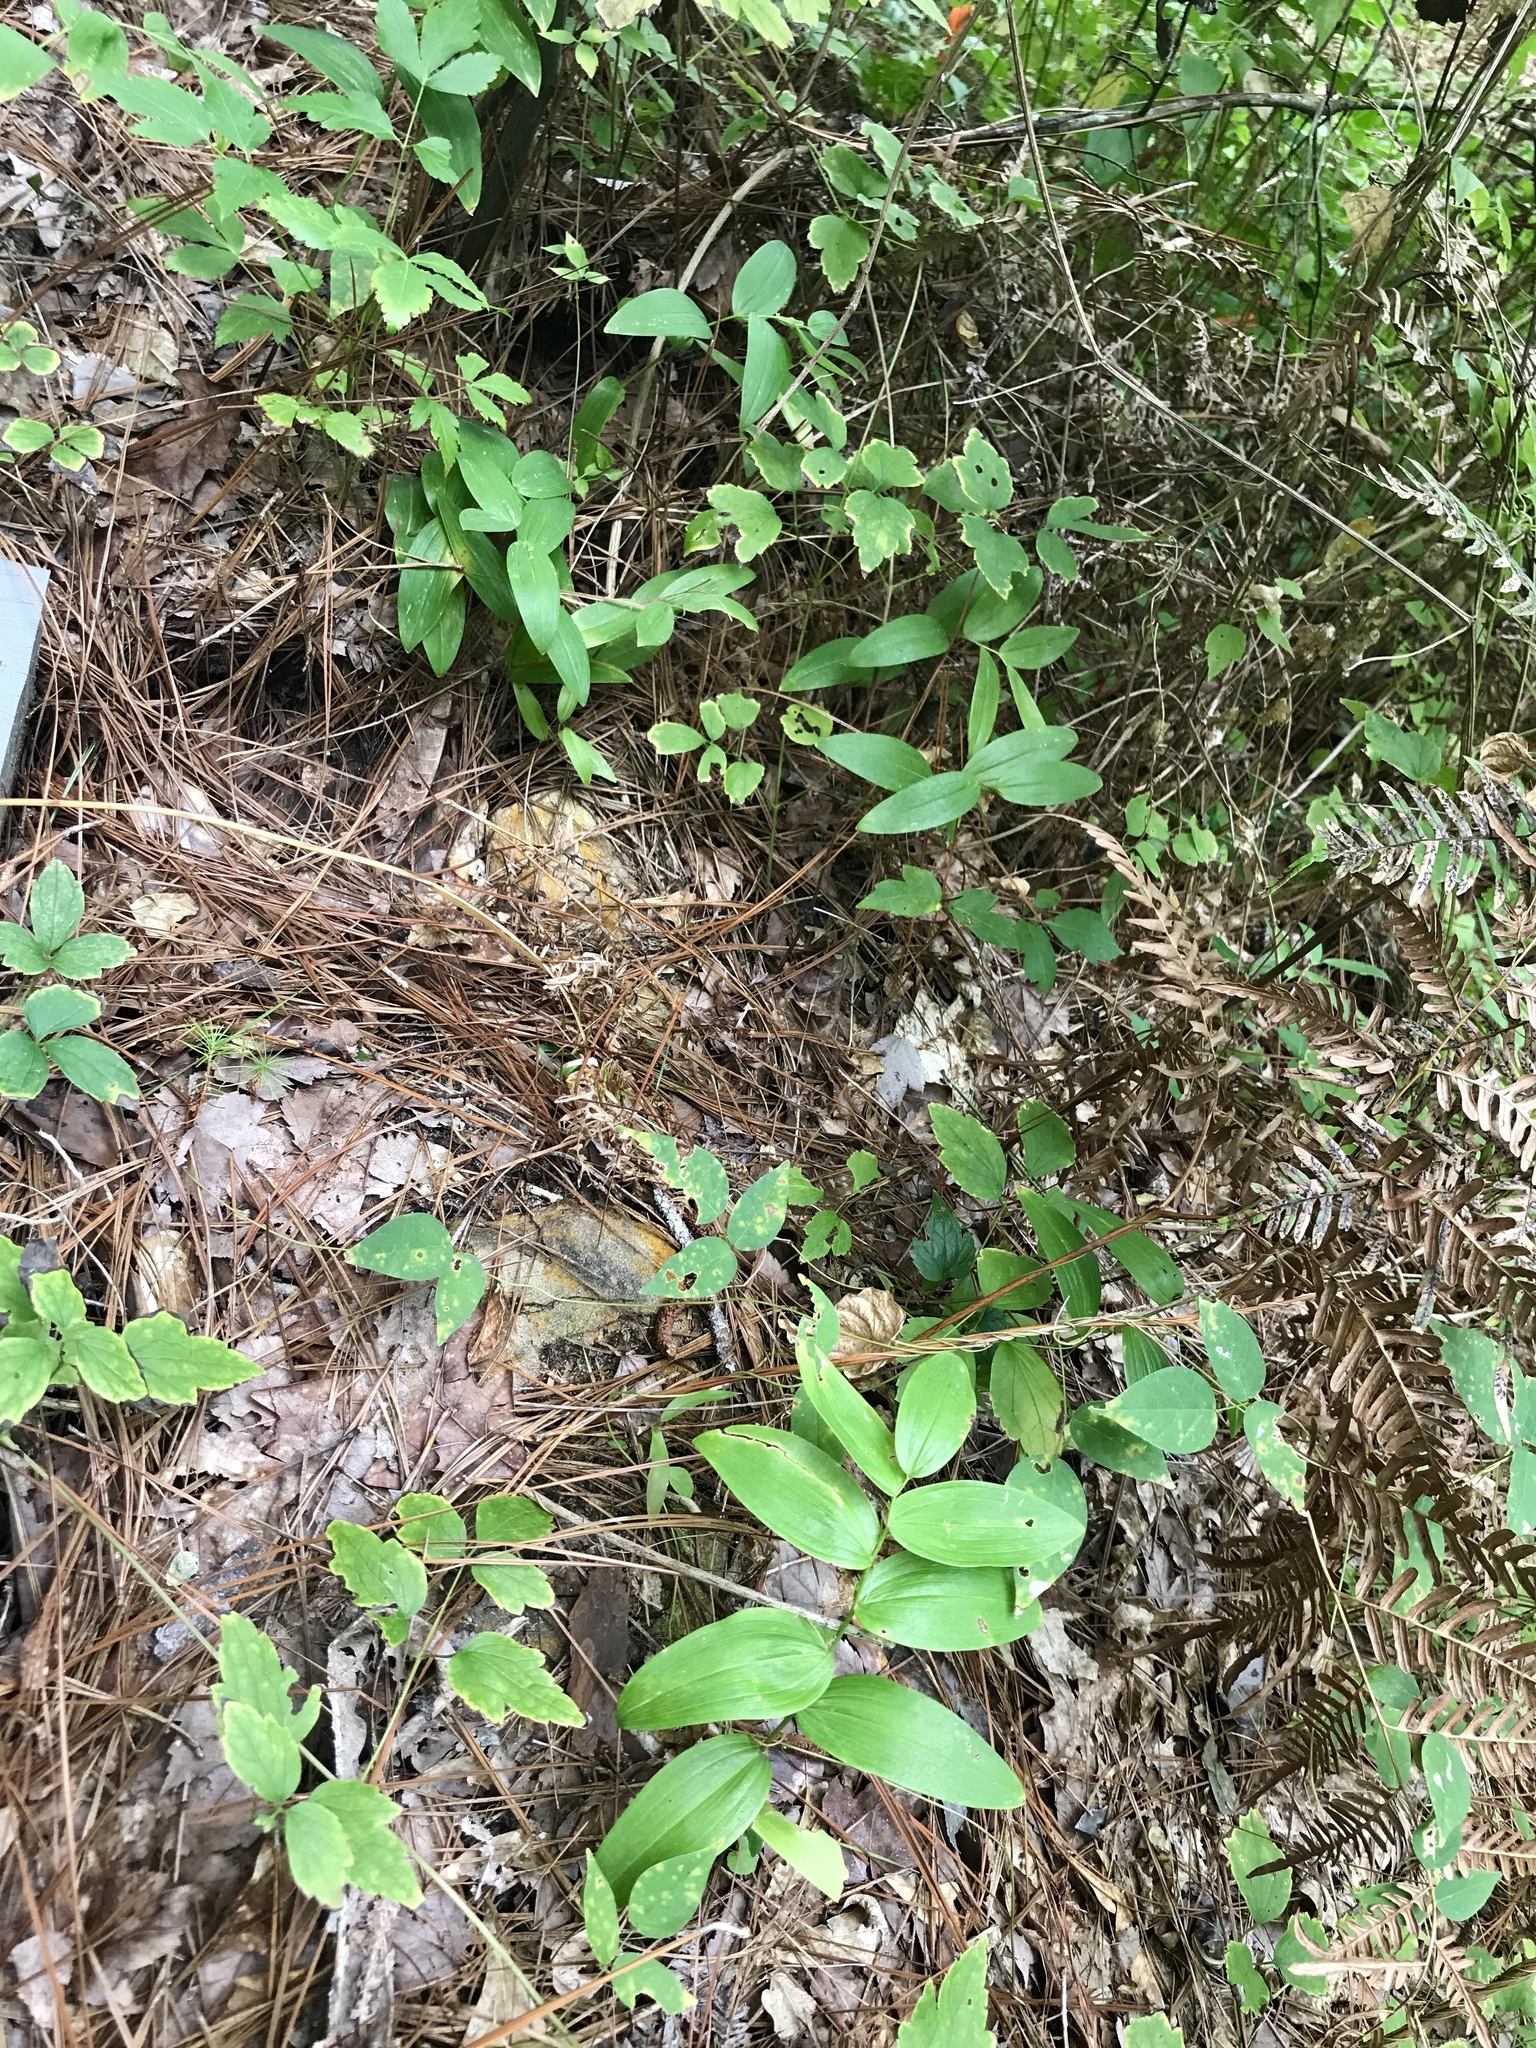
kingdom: Plantae
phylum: Tracheophyta
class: Liliopsida
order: Asparagales
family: Asparagaceae
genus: Polygonatum
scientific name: Polygonatum biflorum
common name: American solomon's-seal
